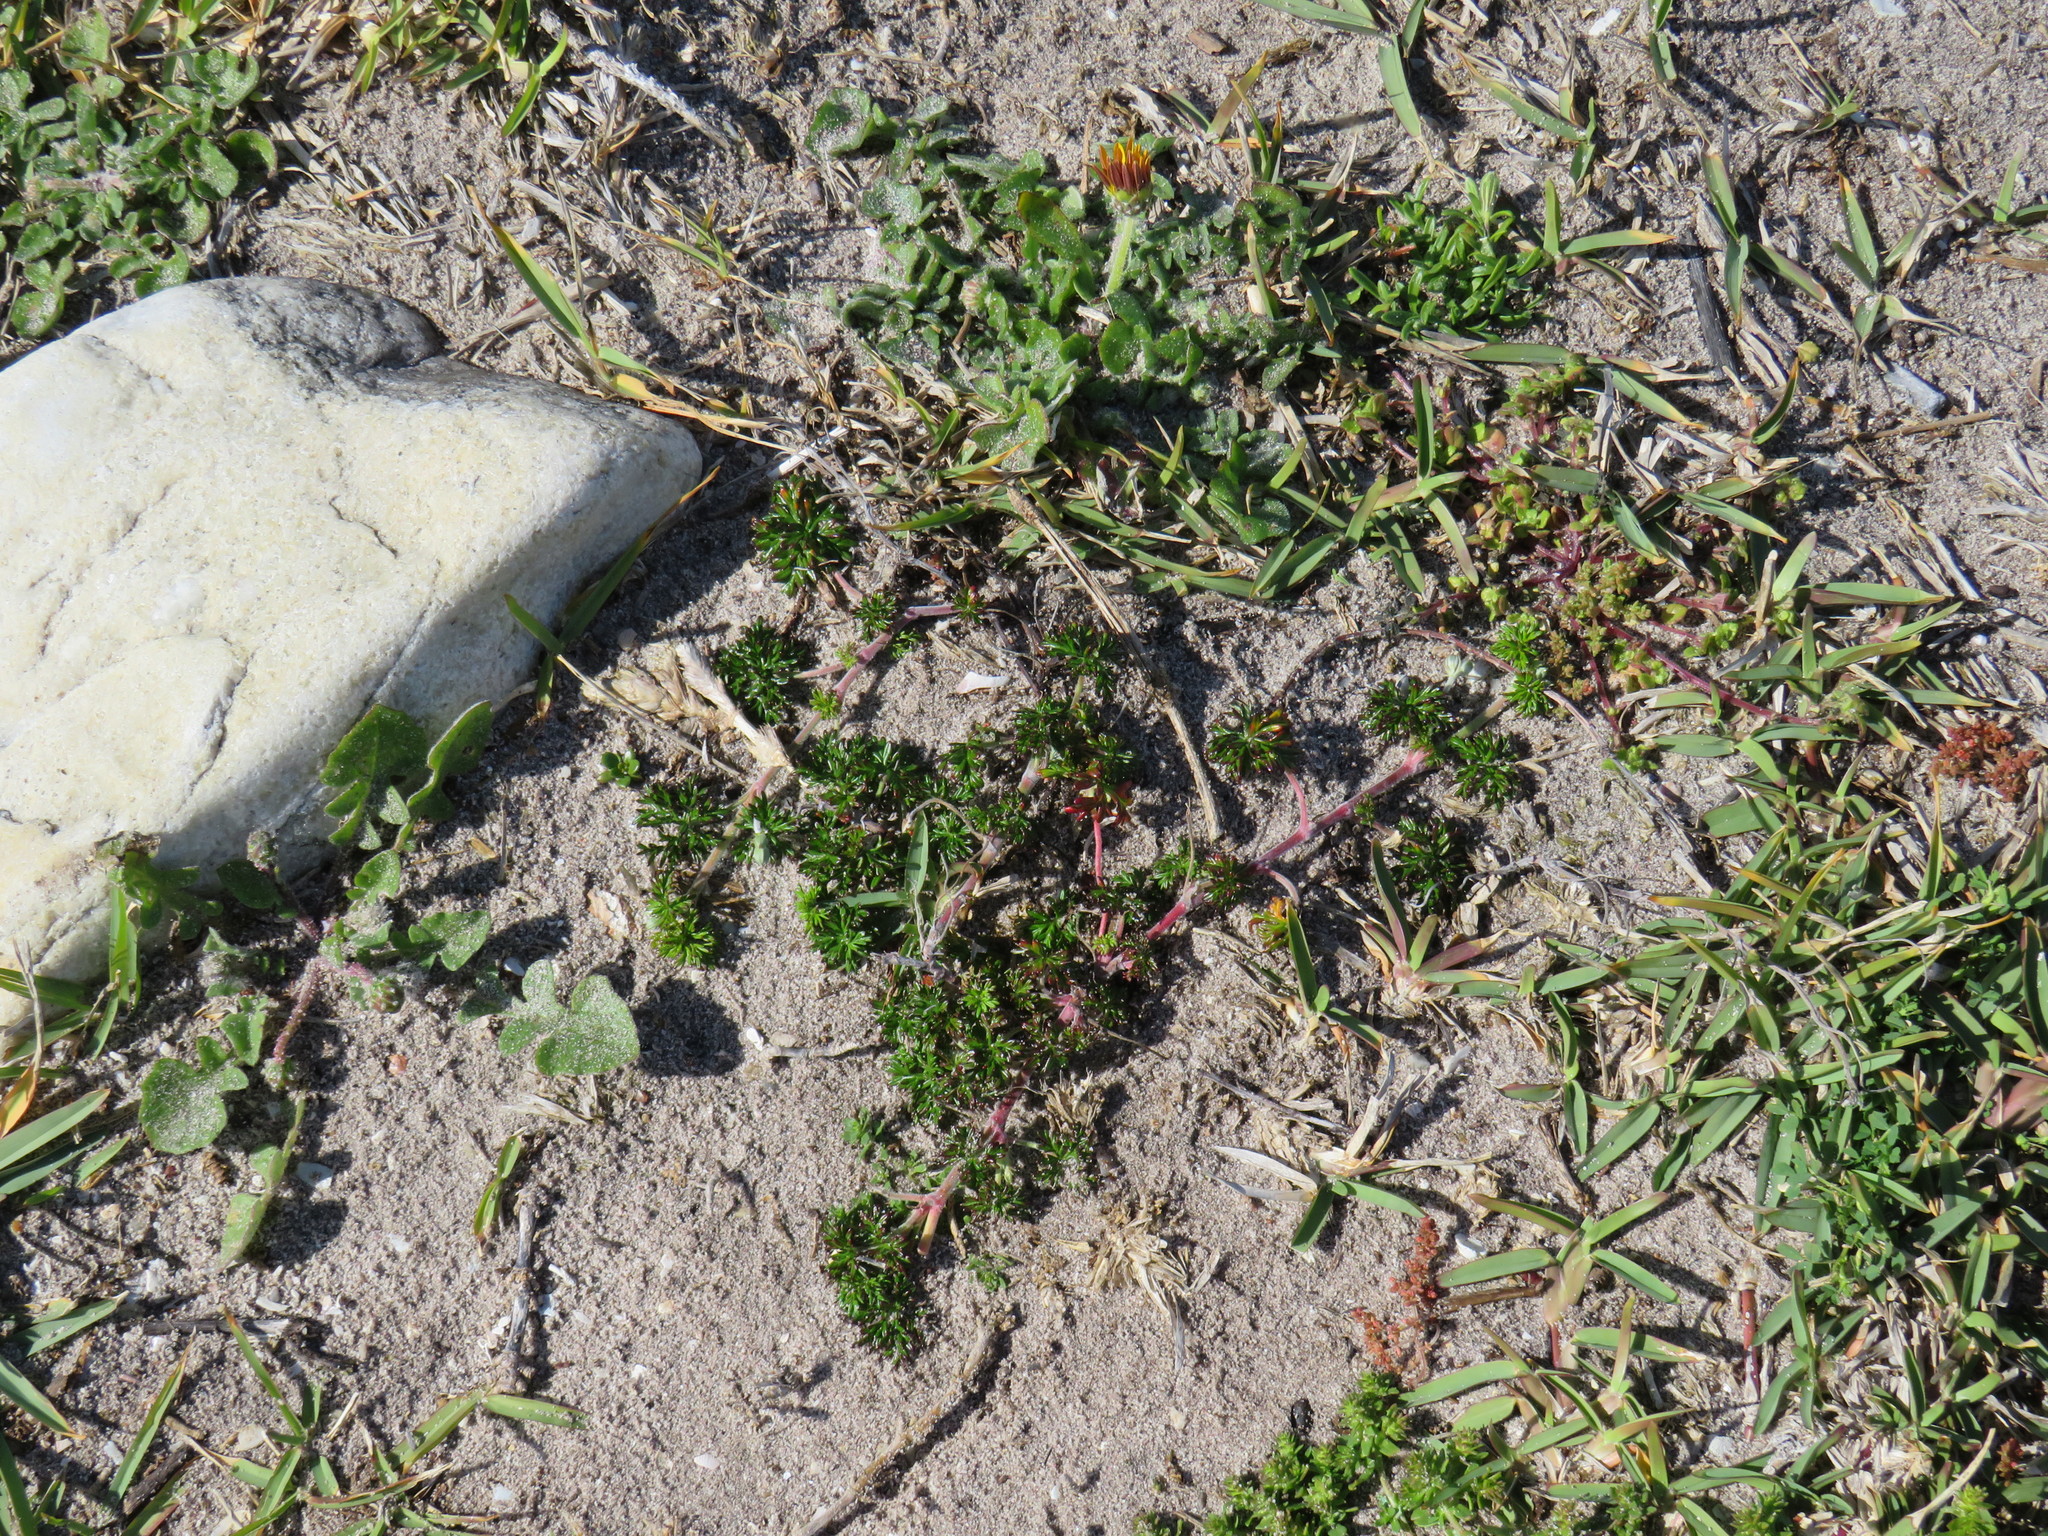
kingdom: Plantae
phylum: Tracheophyta
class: Magnoliopsida
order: Geraniales
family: Geraniaceae
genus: Geranium
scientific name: Geranium incanum
